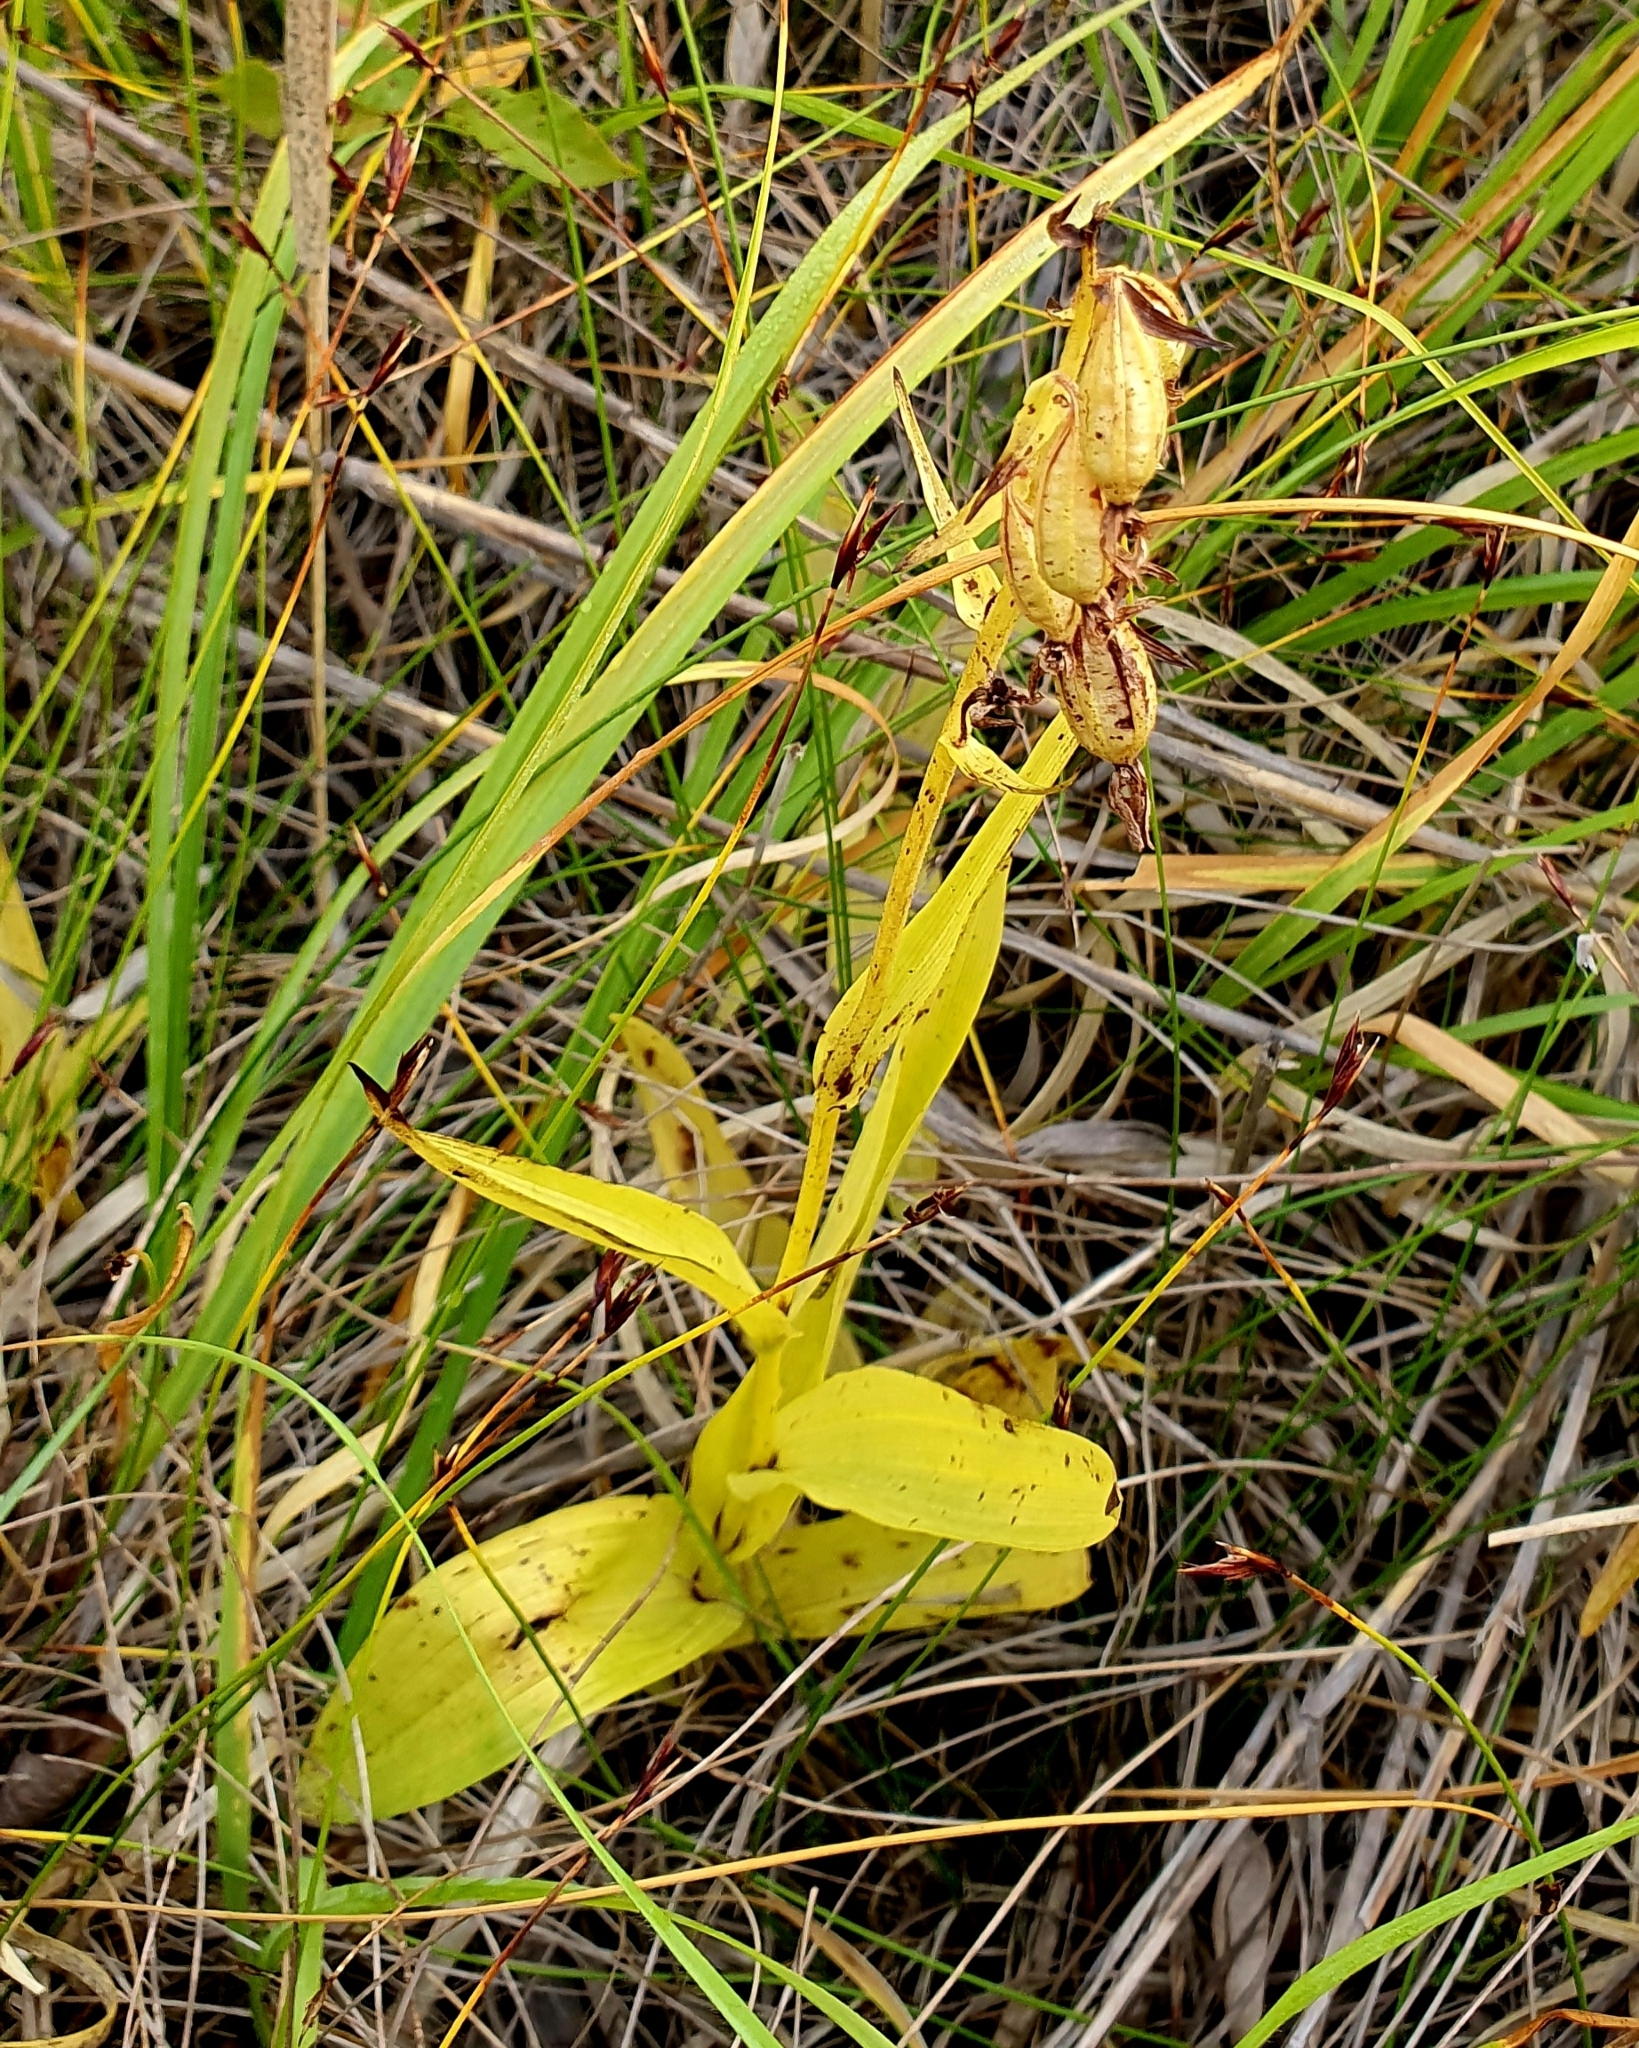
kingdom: Plantae
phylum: Tracheophyta
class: Liliopsida
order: Asparagales
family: Orchidaceae
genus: Epipactis
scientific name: Epipactis palustris
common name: Marsh helleborine
